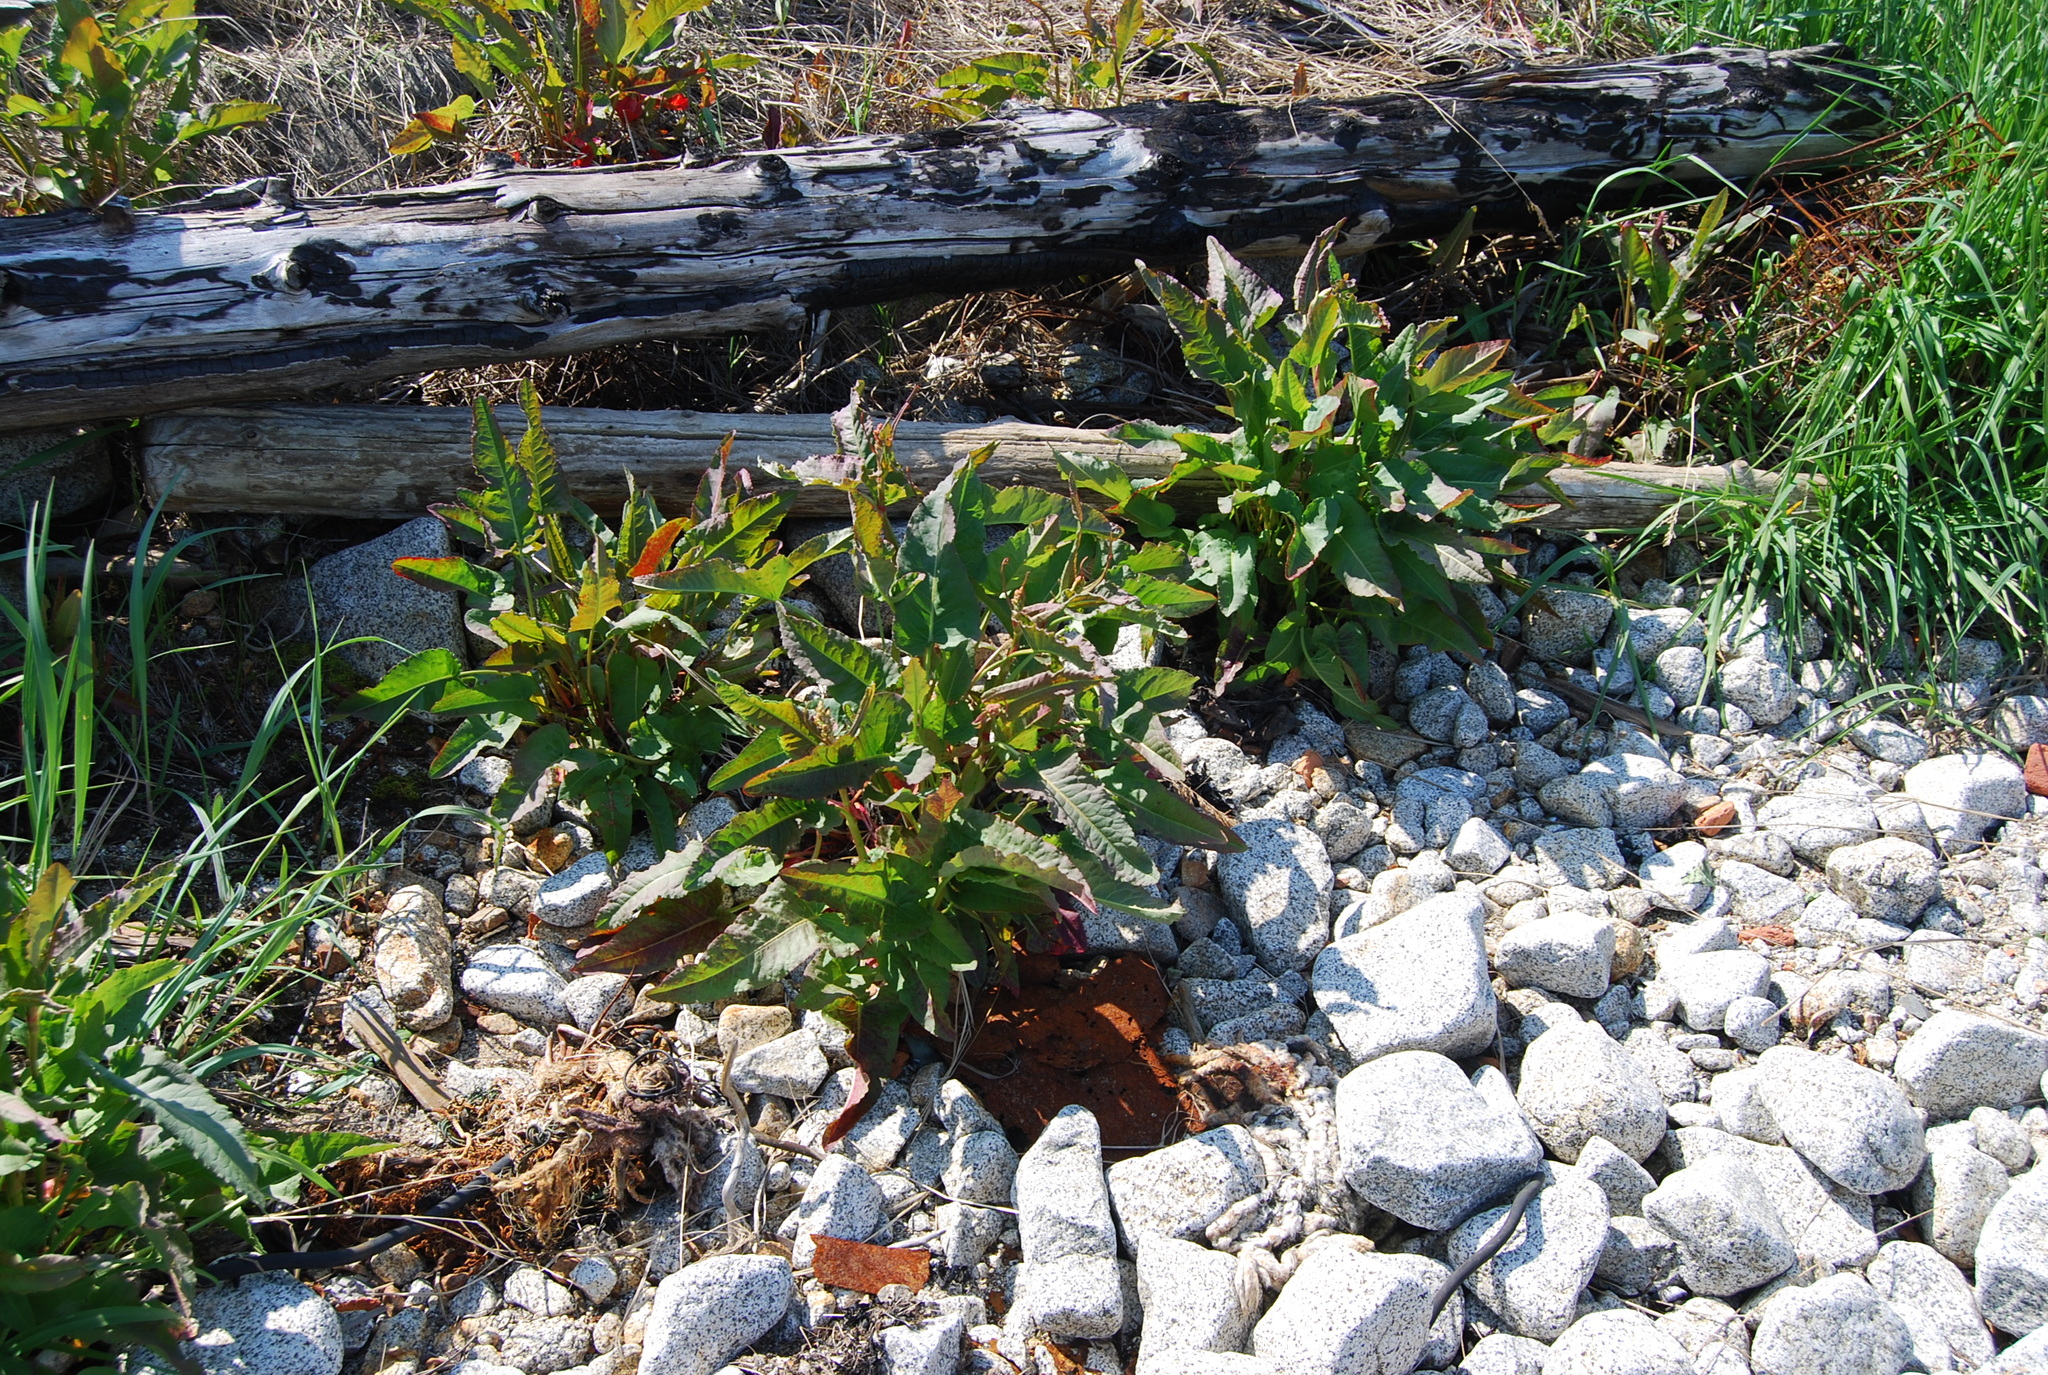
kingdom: Plantae
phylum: Tracheophyta
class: Magnoliopsida
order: Caryophyllales
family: Polygonaceae
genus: Rumex
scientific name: Rumex aquaticus
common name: Scottish dock
